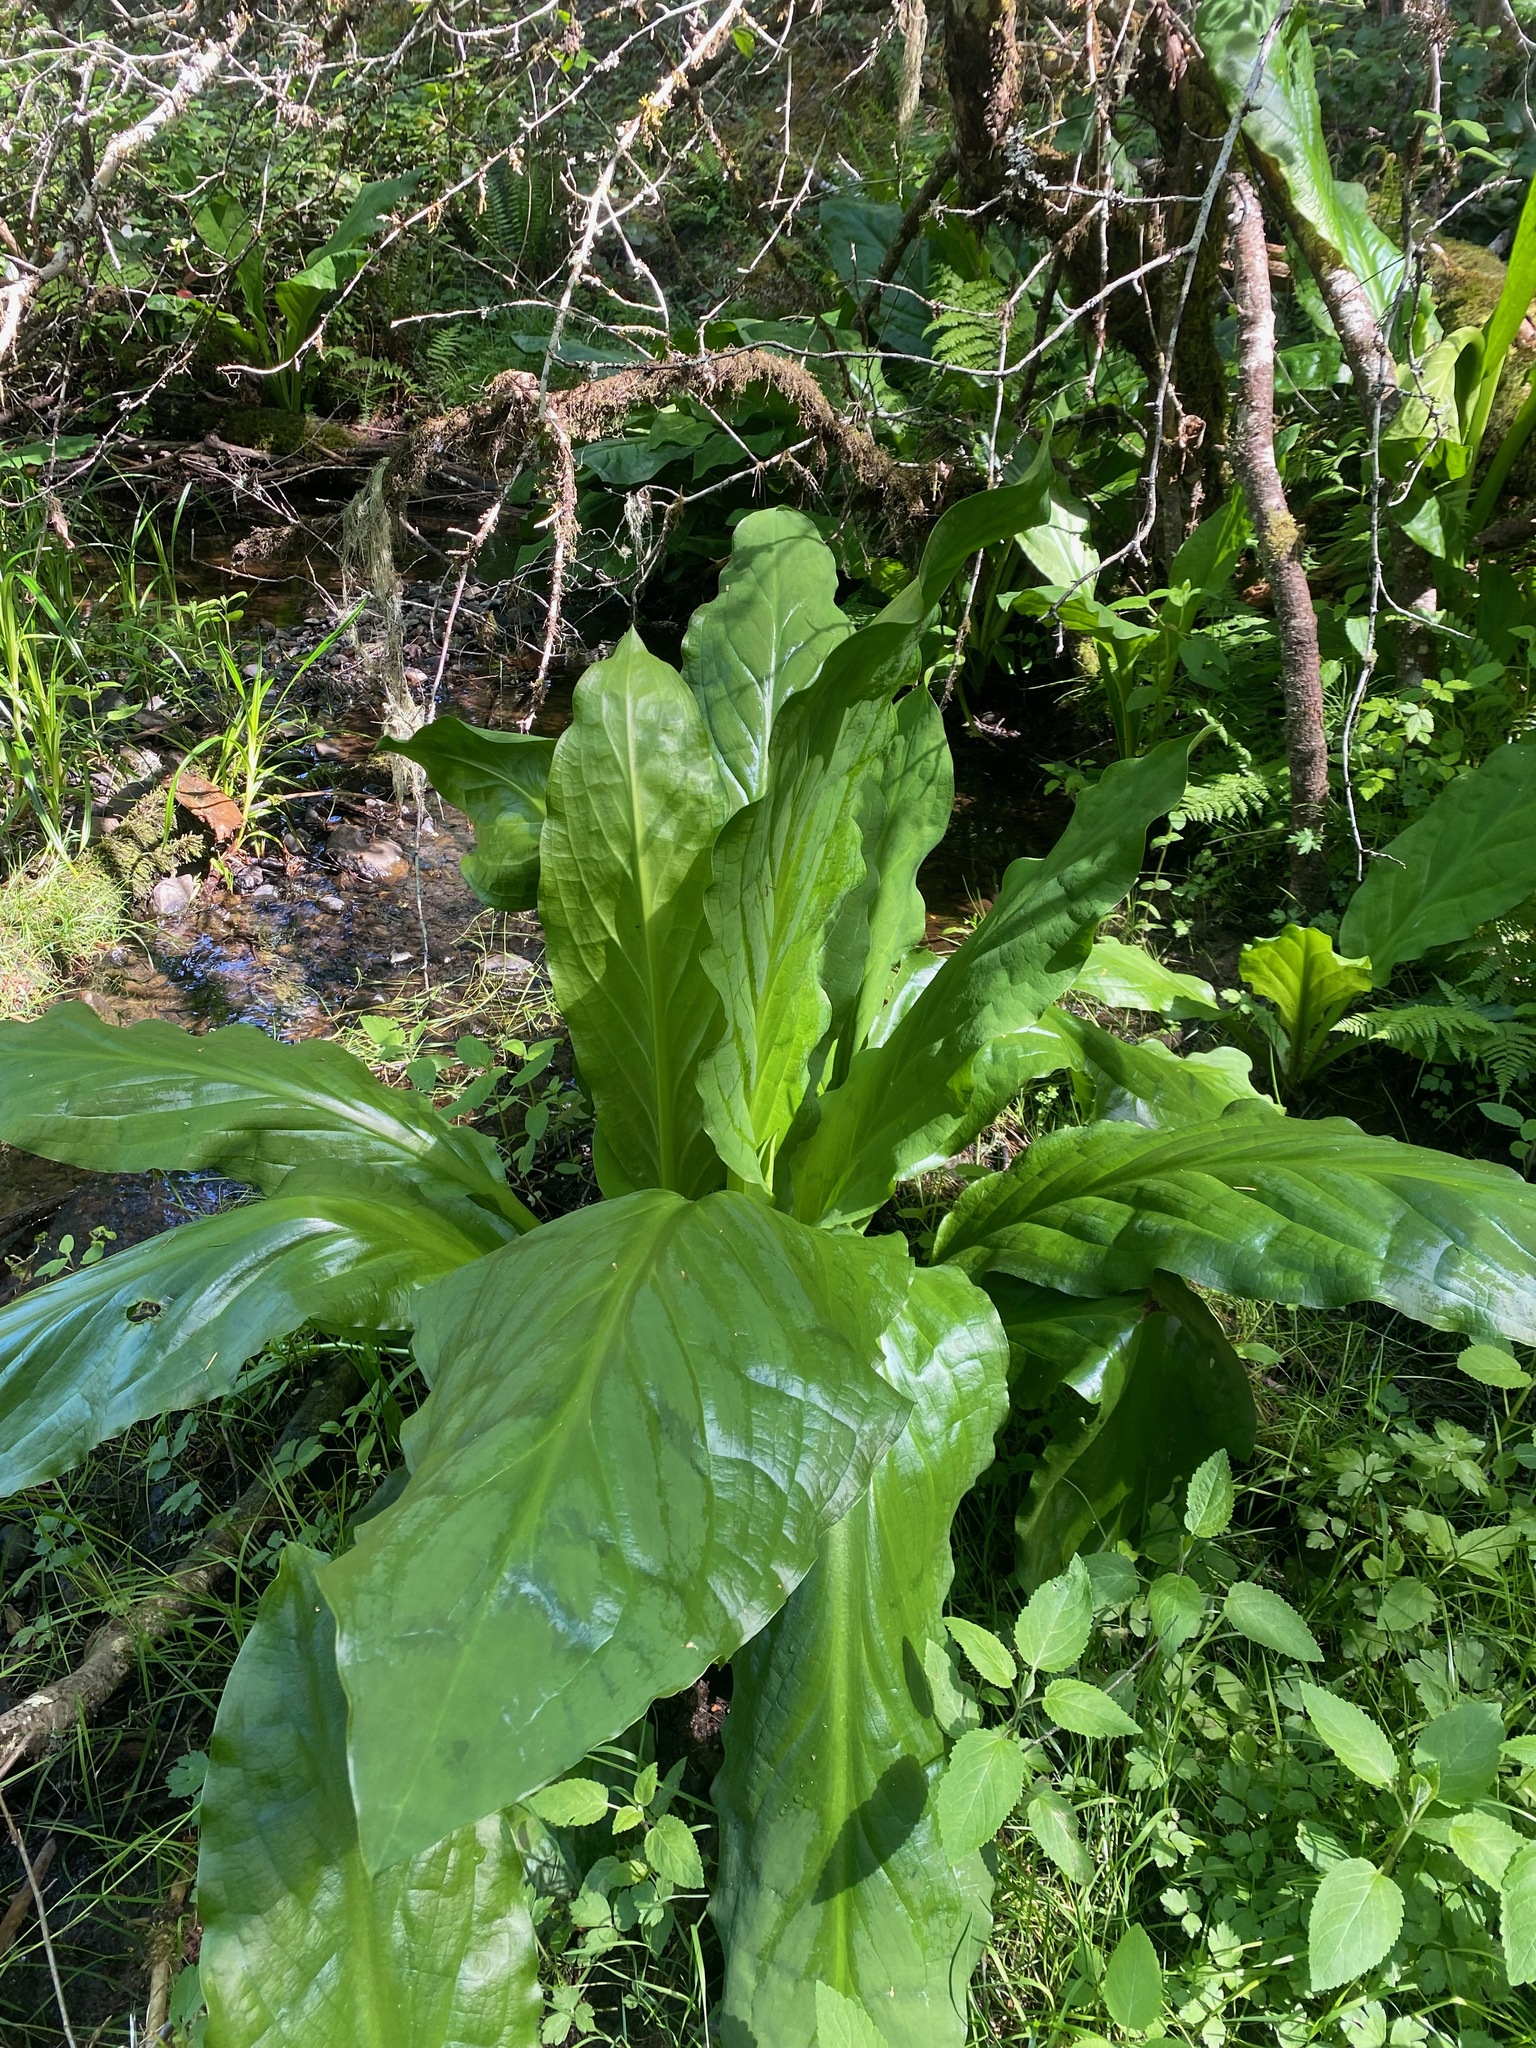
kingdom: Plantae
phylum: Tracheophyta
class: Liliopsida
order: Alismatales
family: Araceae
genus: Lysichiton
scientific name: Lysichiton americanus
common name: American skunk cabbage
